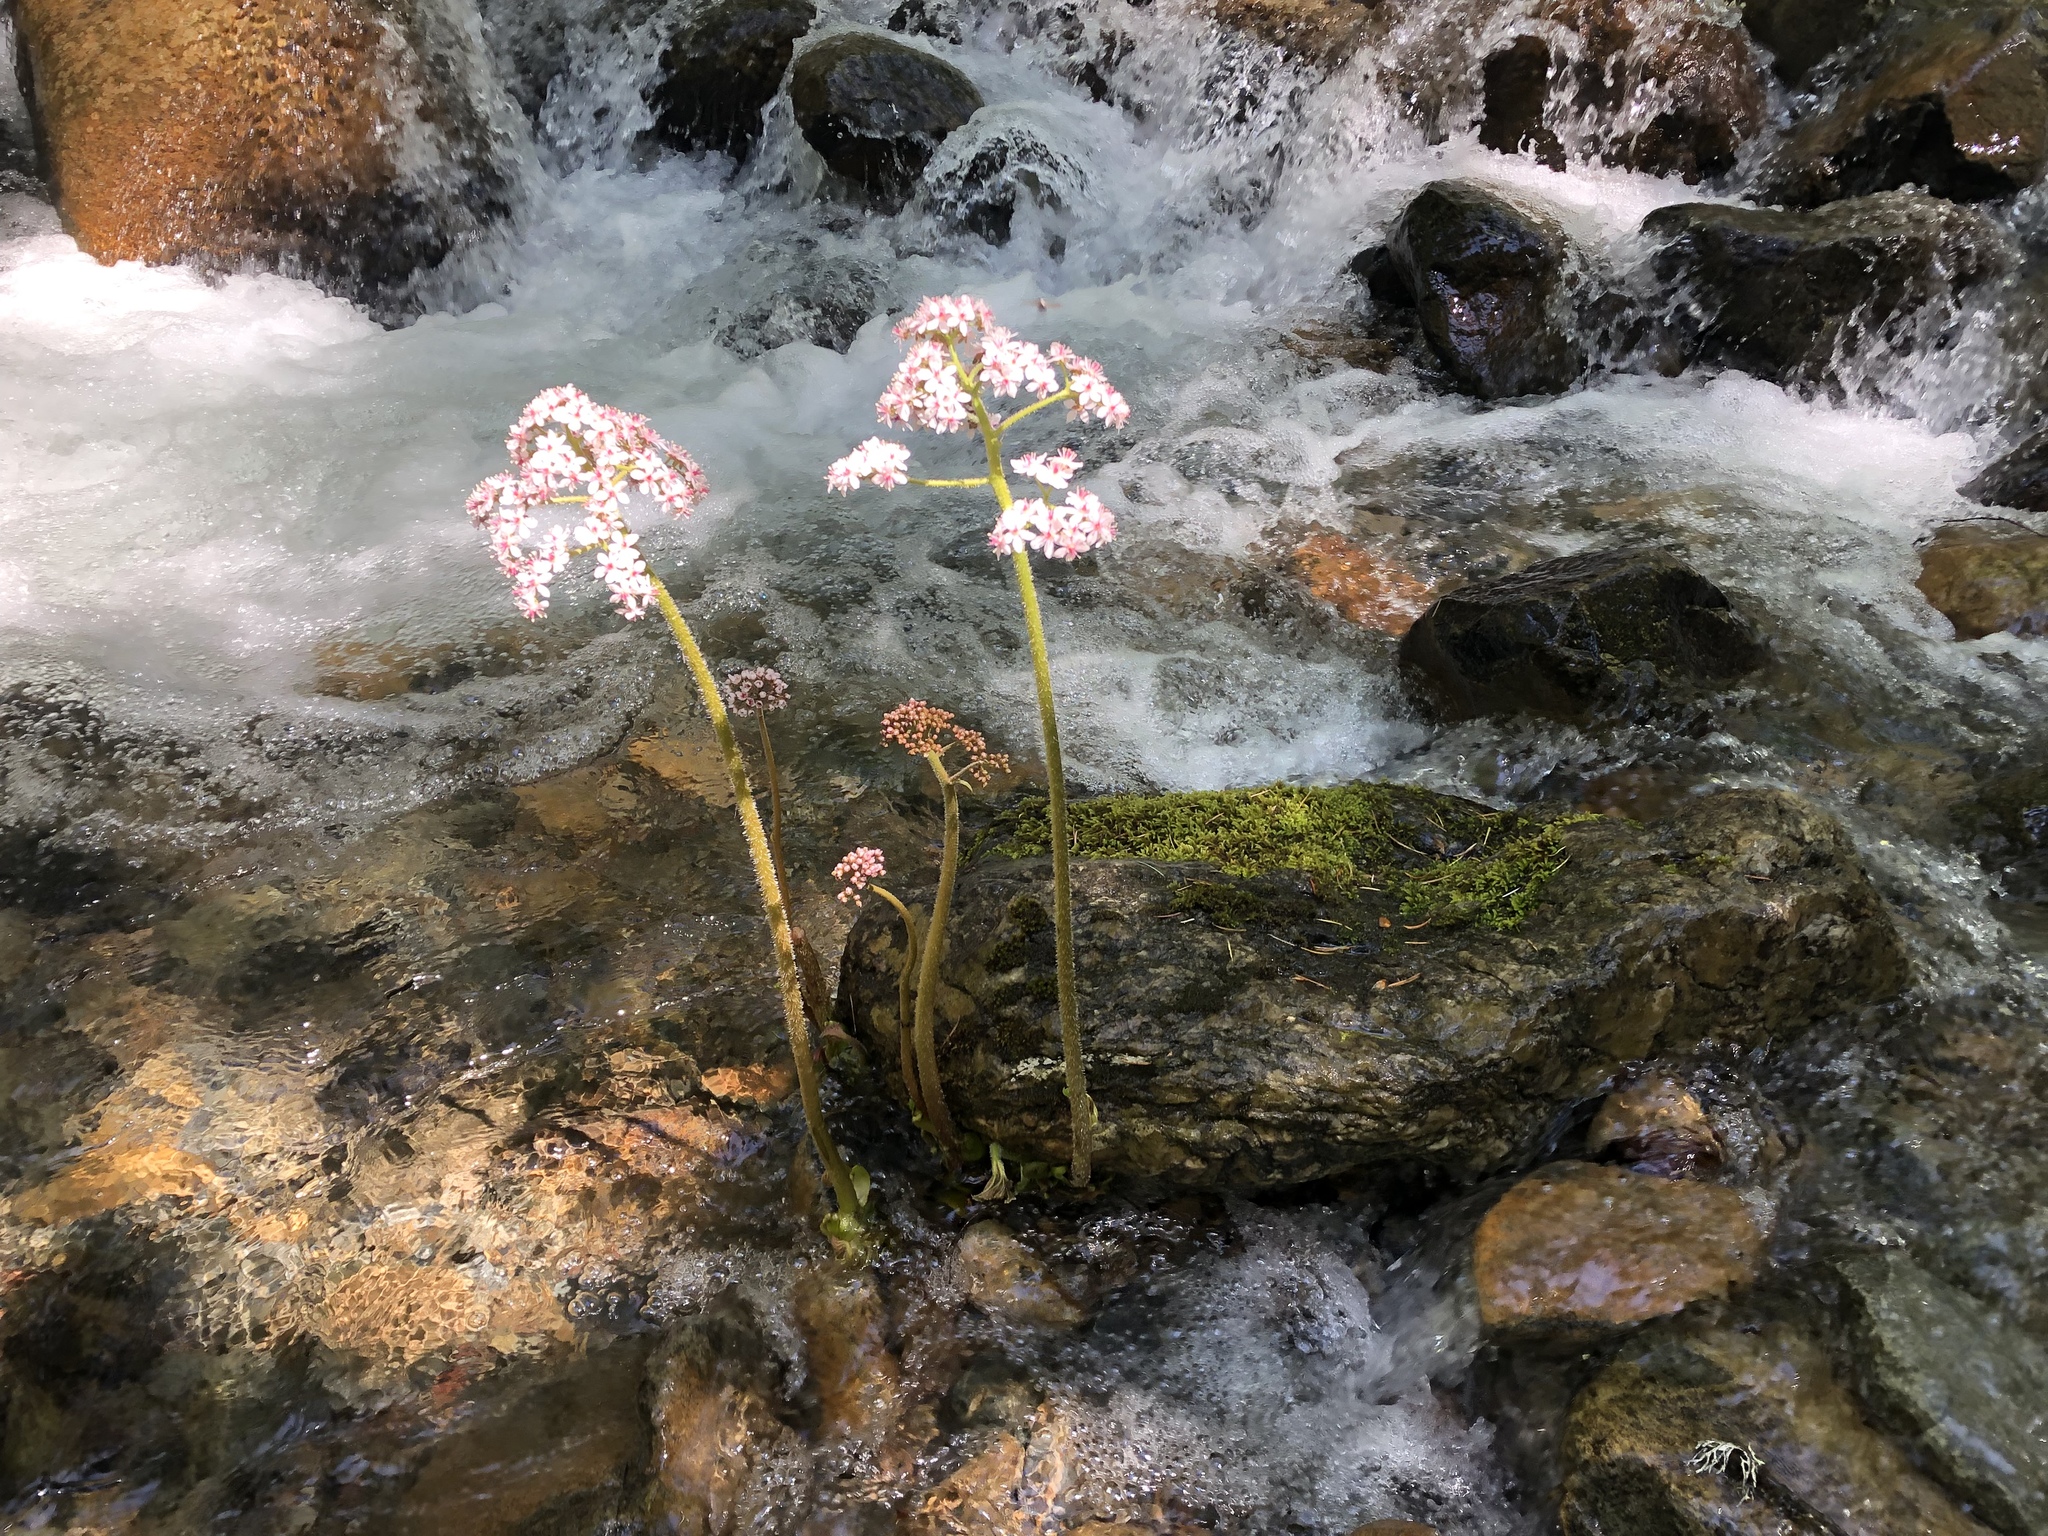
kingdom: Plantae
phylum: Tracheophyta
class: Magnoliopsida
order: Saxifragales
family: Saxifragaceae
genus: Darmera
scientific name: Darmera peltata
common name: Indian-rhubarb
